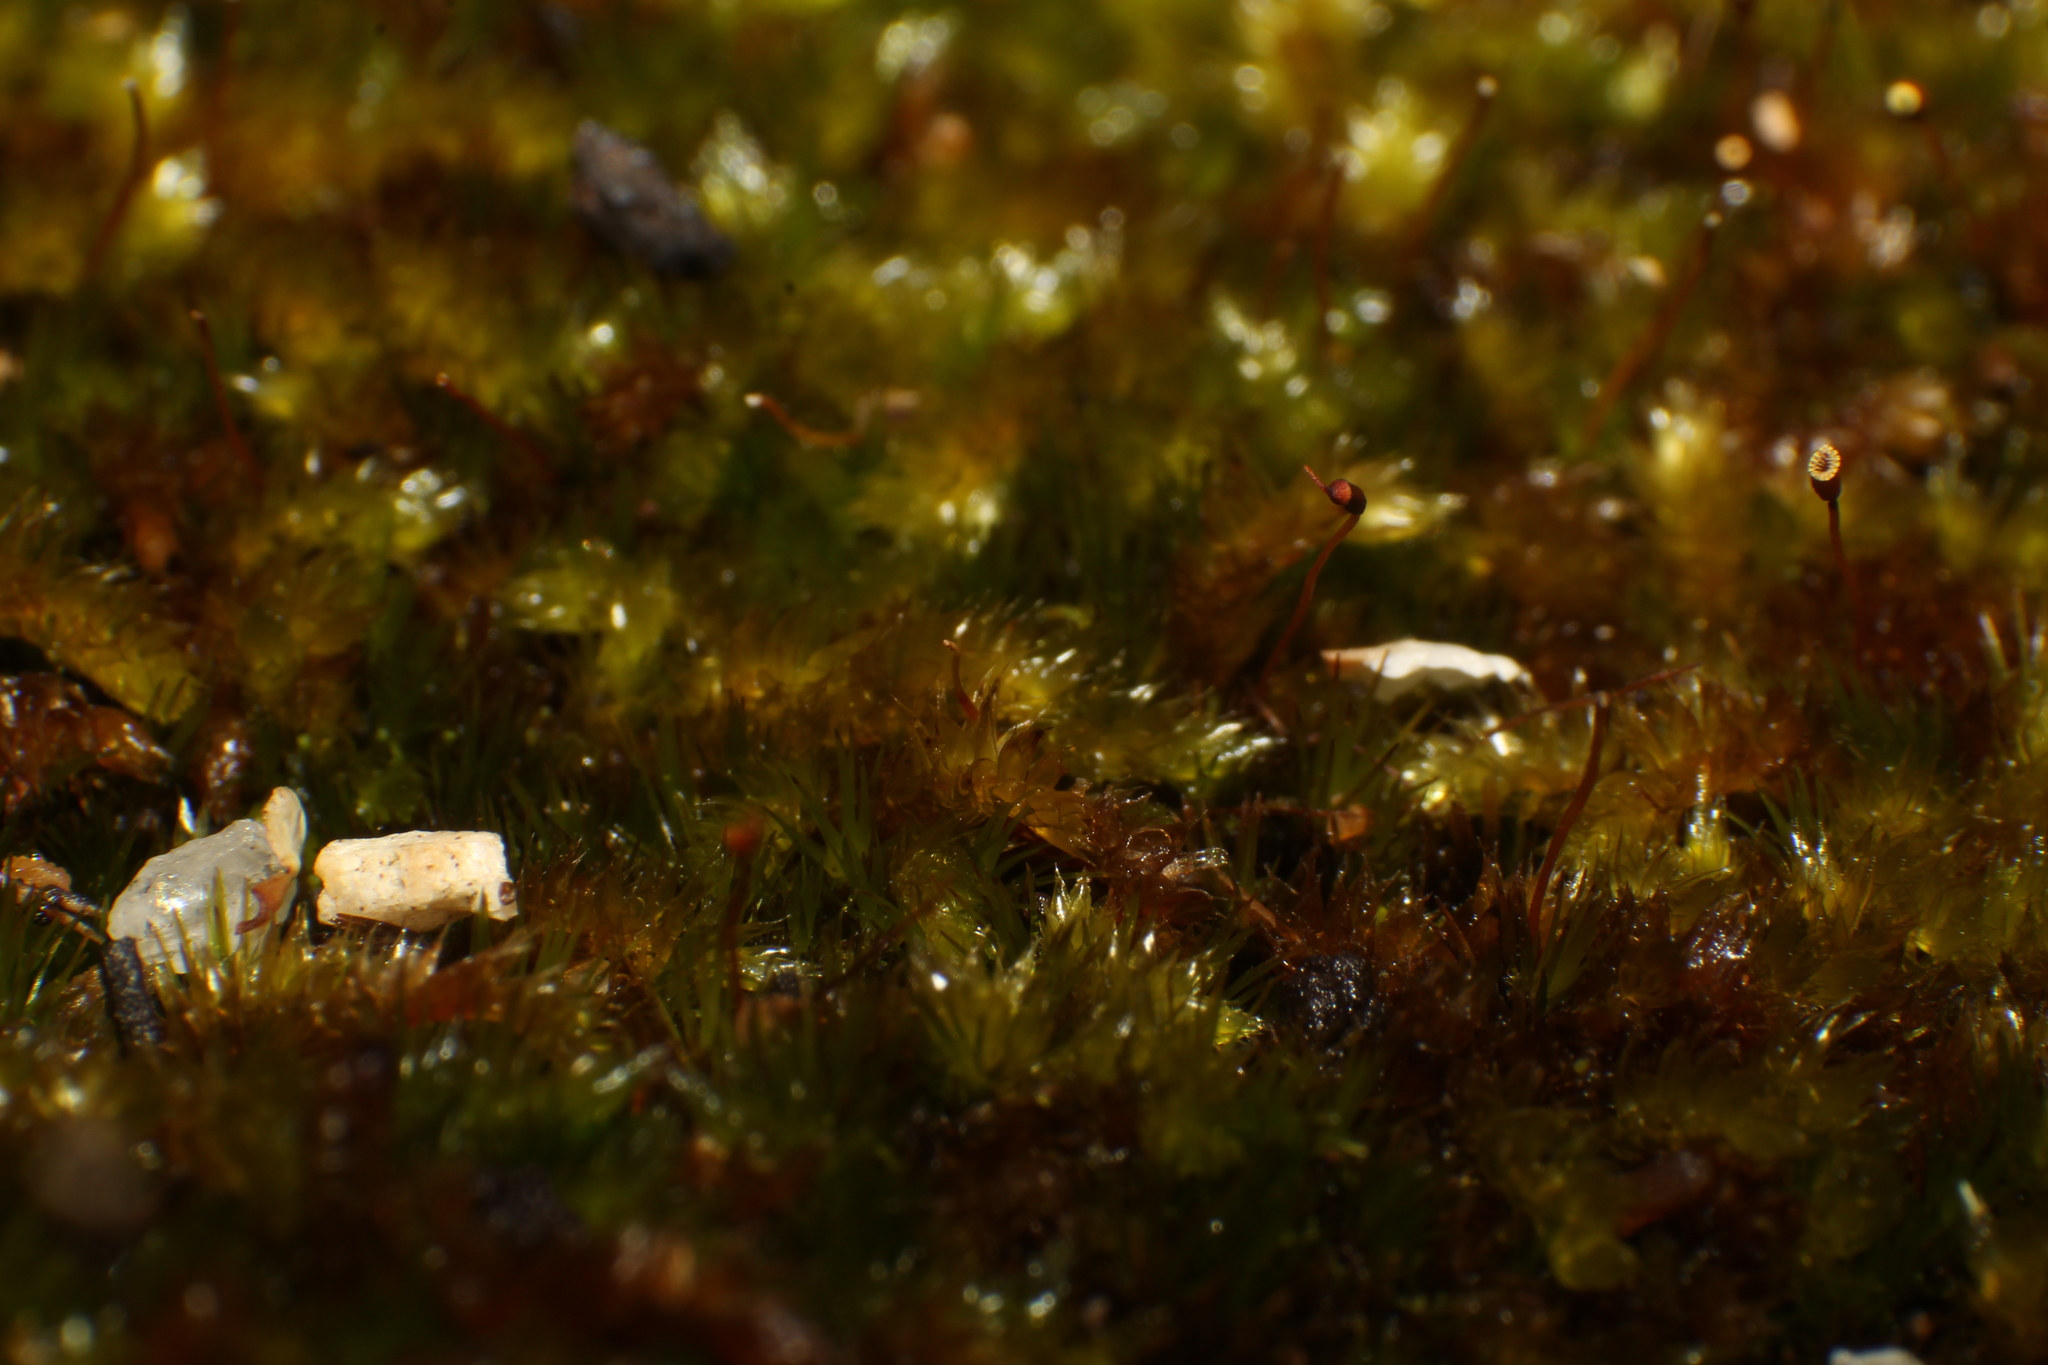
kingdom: Plantae
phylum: Bryophyta
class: Bryopsida
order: Hypnales
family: Sematophyllaceae
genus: Sematophyllum
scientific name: Sematophyllum homomallum
